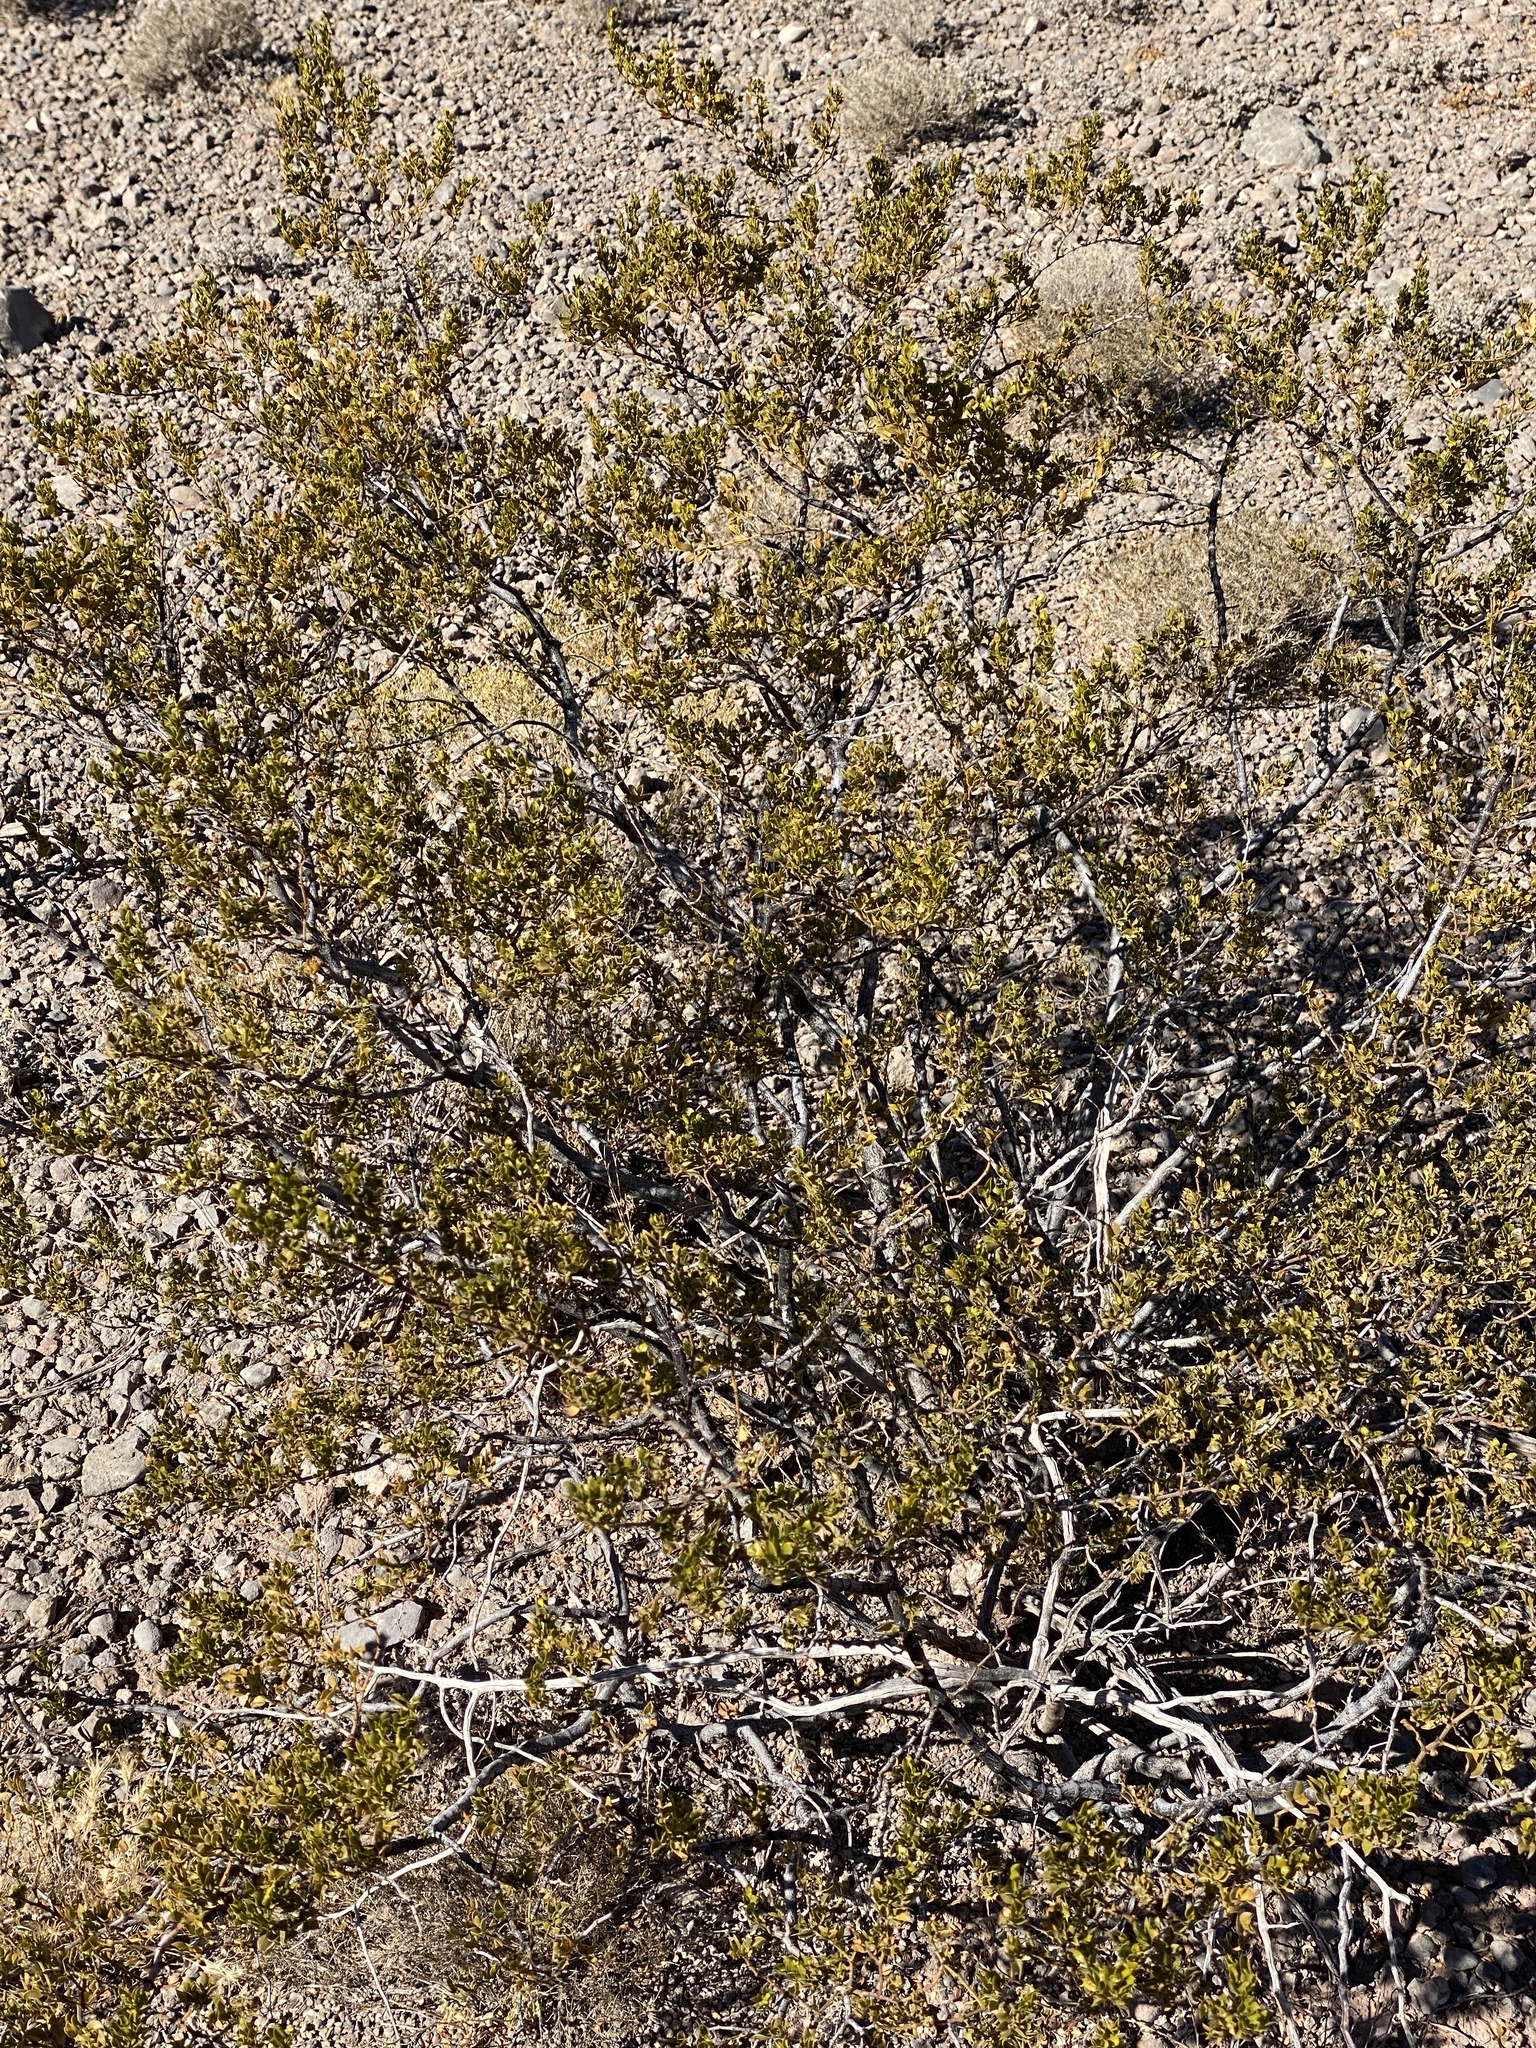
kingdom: Plantae
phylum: Tracheophyta
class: Magnoliopsida
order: Zygophyllales
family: Zygophyllaceae
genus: Larrea
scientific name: Larrea tridentata
